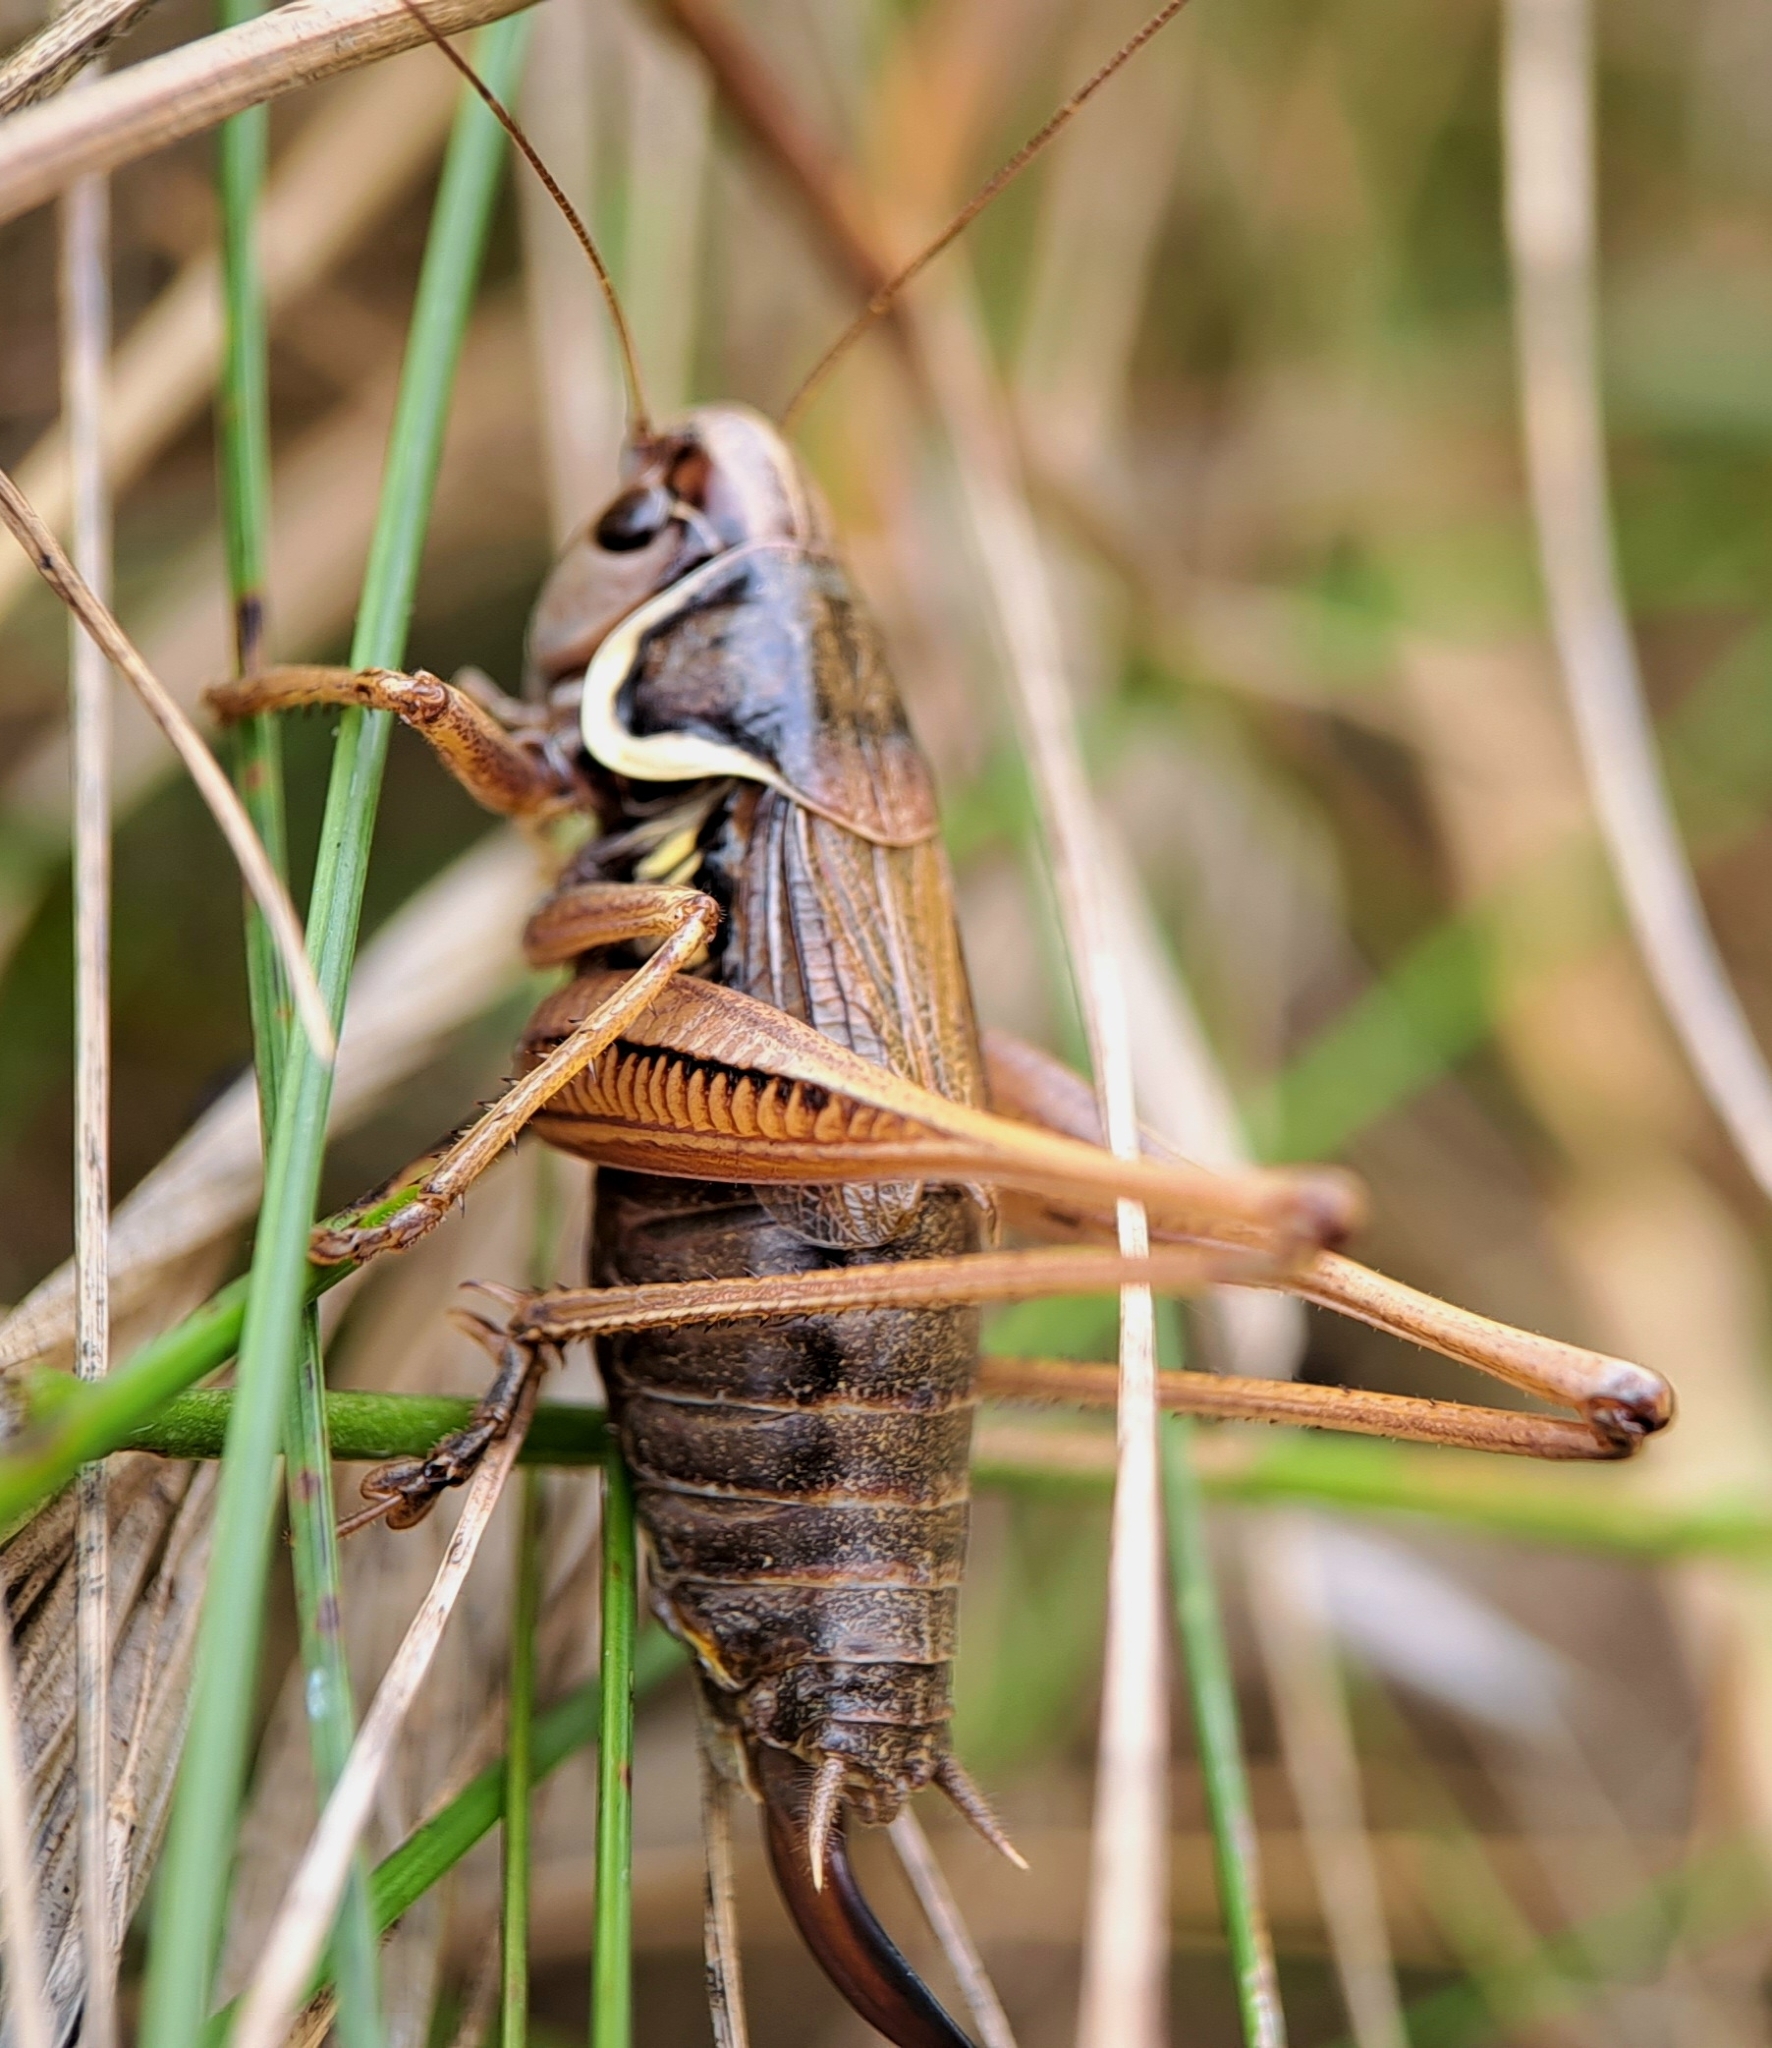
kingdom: Animalia
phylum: Arthropoda
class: Insecta
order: Orthoptera
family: Tettigoniidae
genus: Roeseliana
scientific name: Roeseliana roeselii
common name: Roesel's bush cricket
